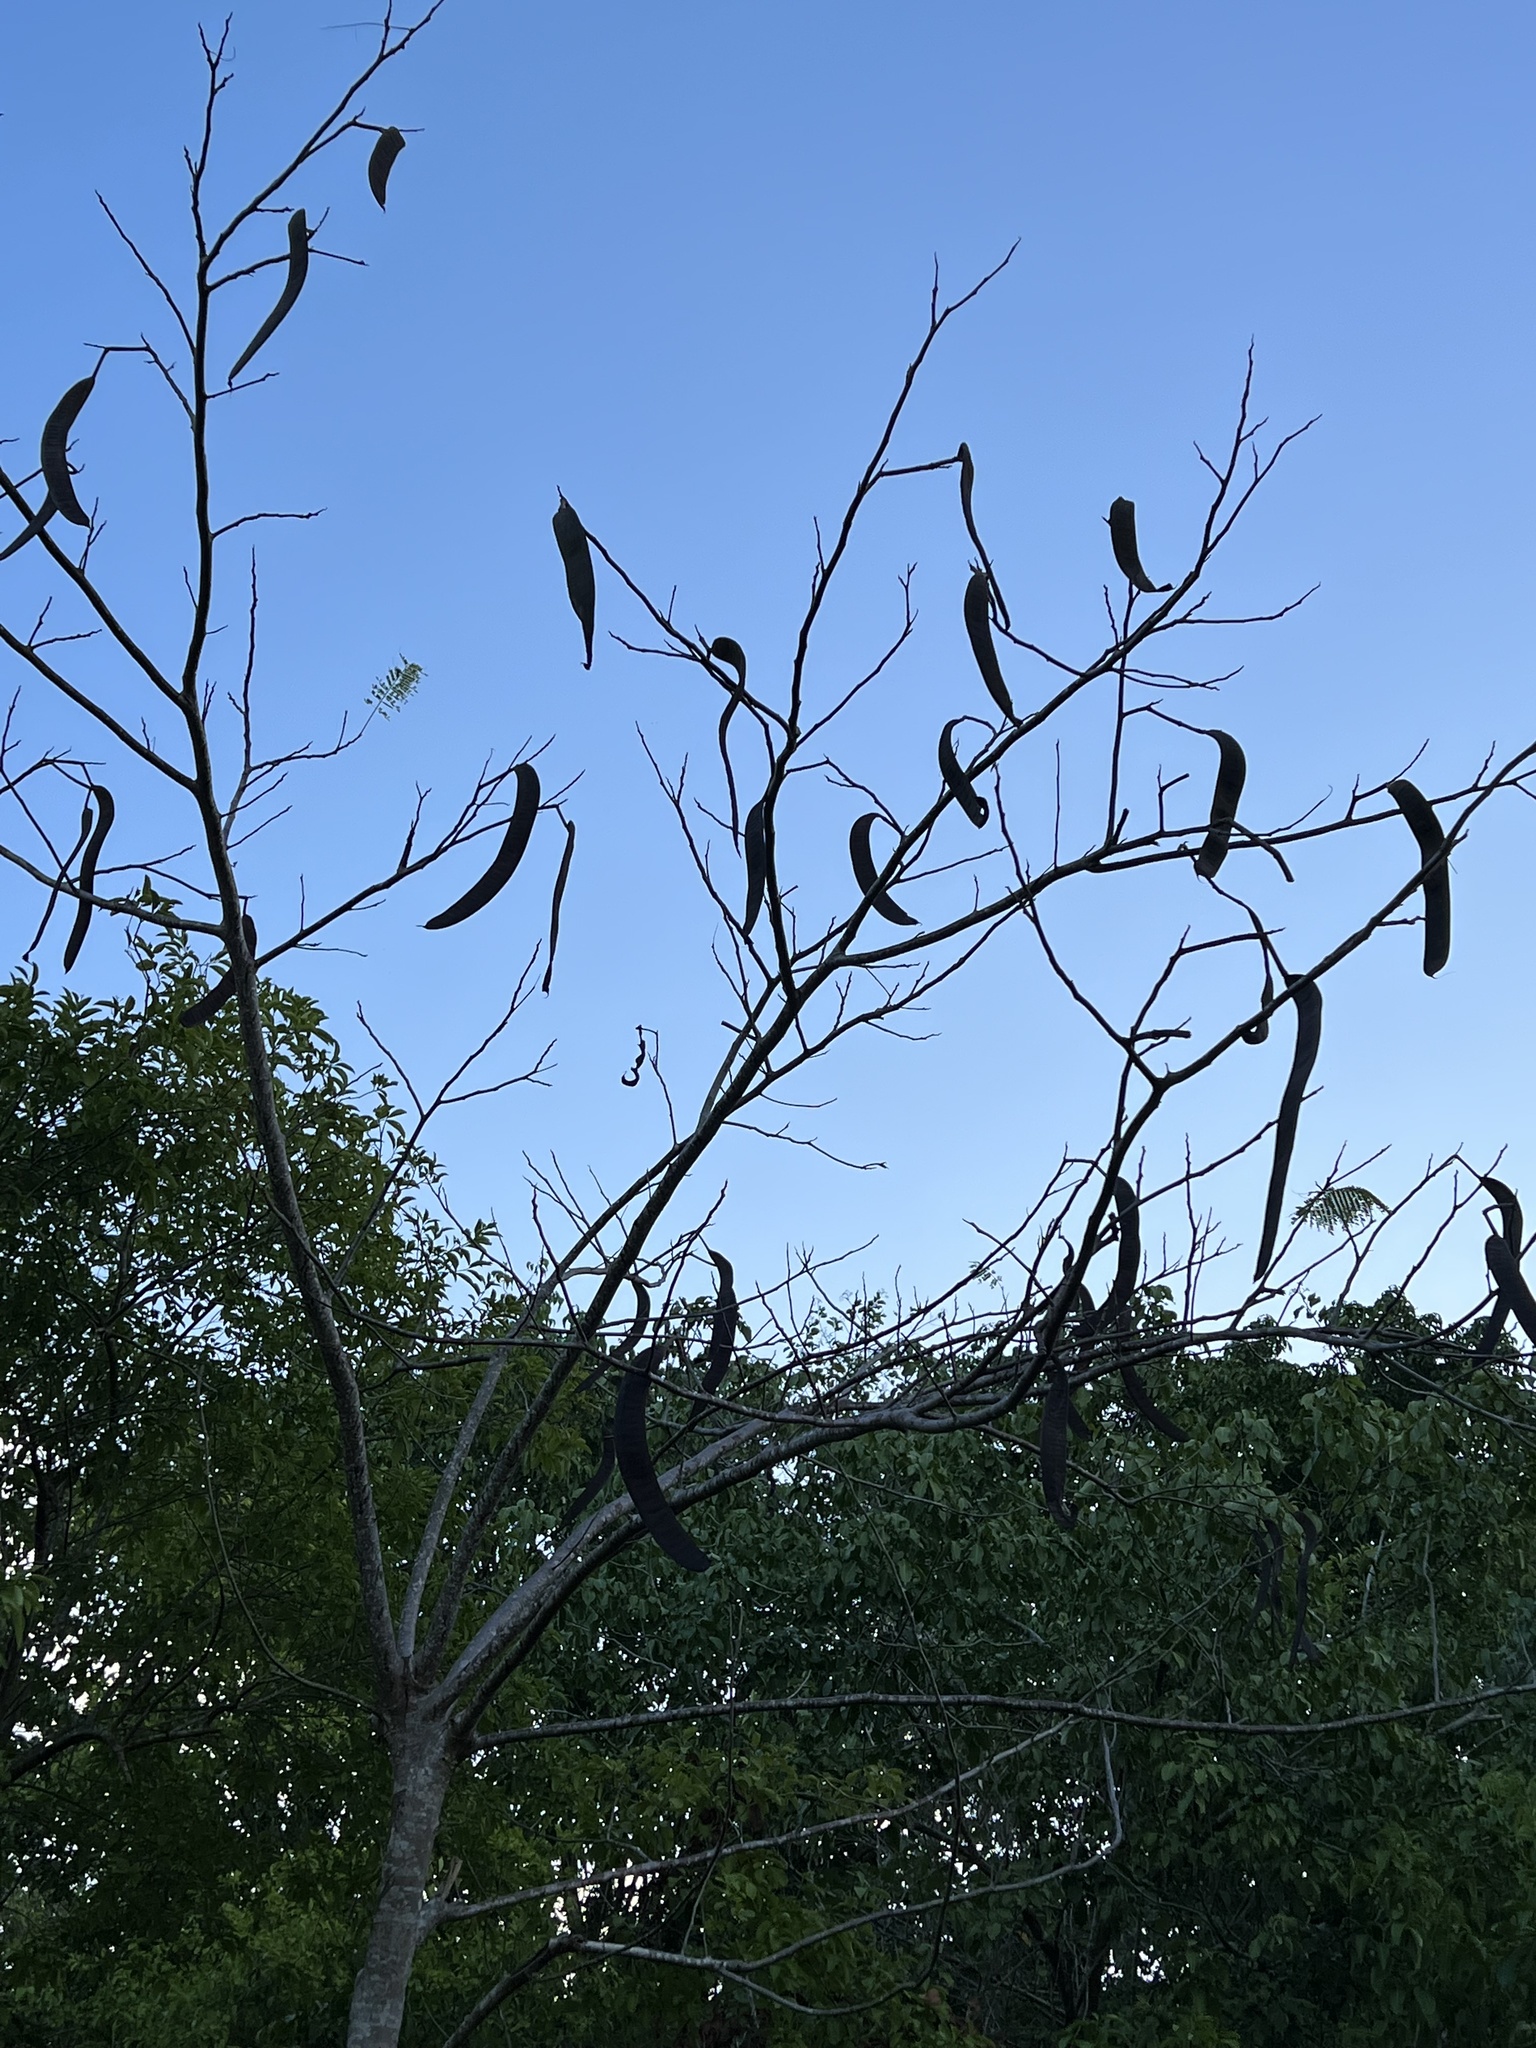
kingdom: Plantae
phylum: Tracheophyta
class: Magnoliopsida
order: Fabales
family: Fabaceae
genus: Delonix
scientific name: Delonix regia
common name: Royal poinciana
